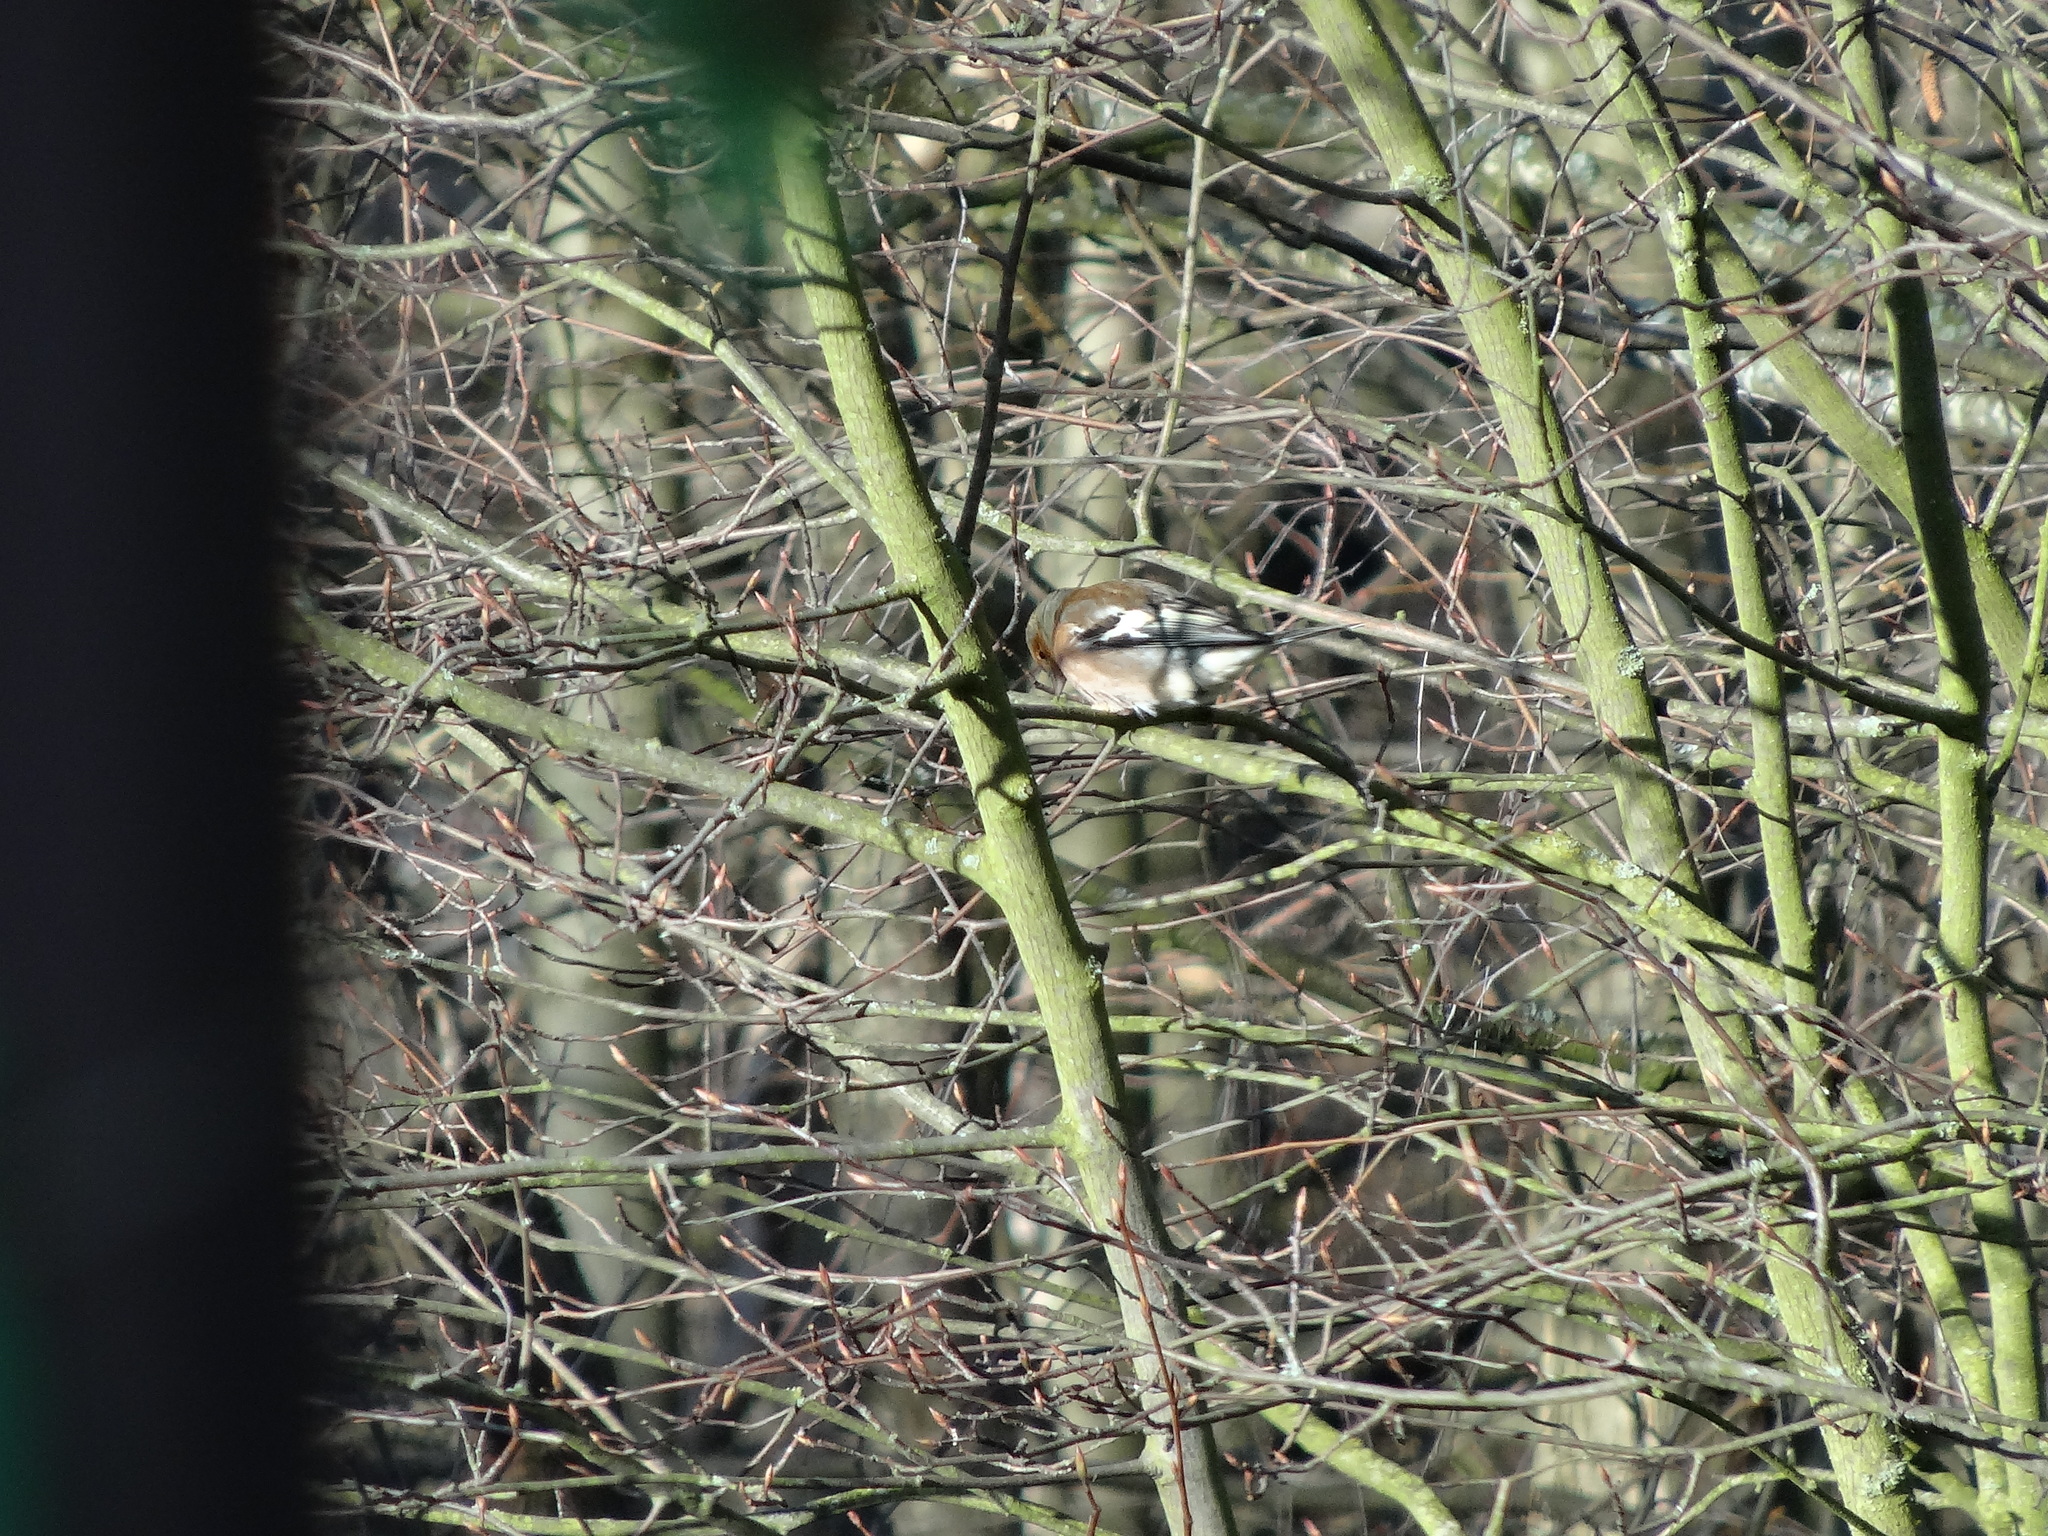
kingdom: Animalia
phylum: Chordata
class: Aves
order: Passeriformes
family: Fringillidae
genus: Fringilla
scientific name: Fringilla coelebs
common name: Common chaffinch
